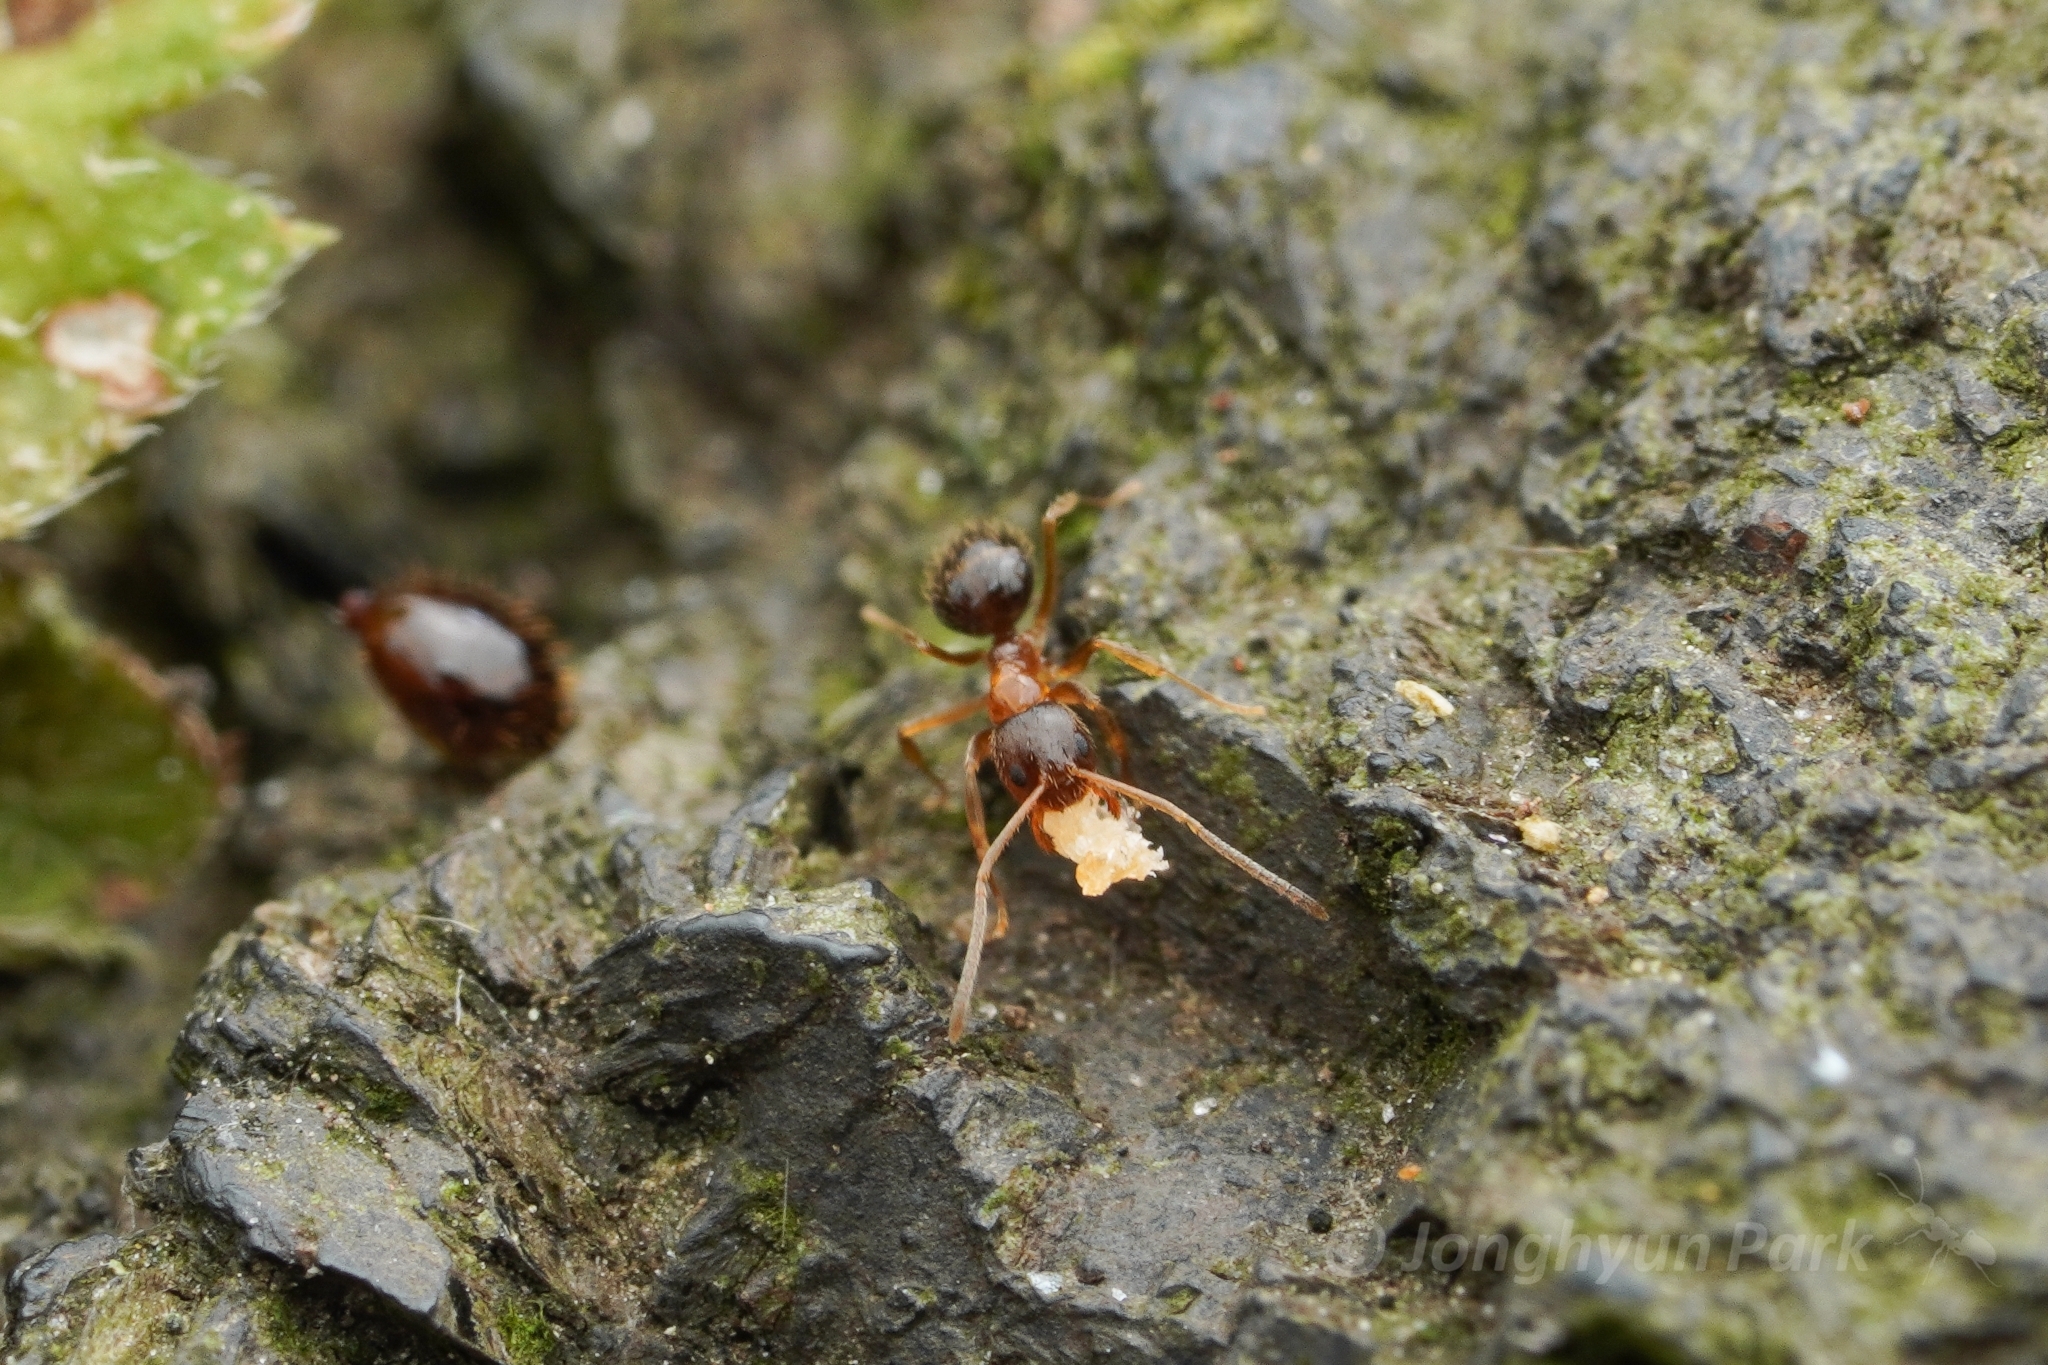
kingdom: Animalia
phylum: Arthropoda
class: Insecta
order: Hymenoptera
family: Formicidae
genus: Paratrechina
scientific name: Paratrechina flavipes
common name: Eastern asian formicine ant
